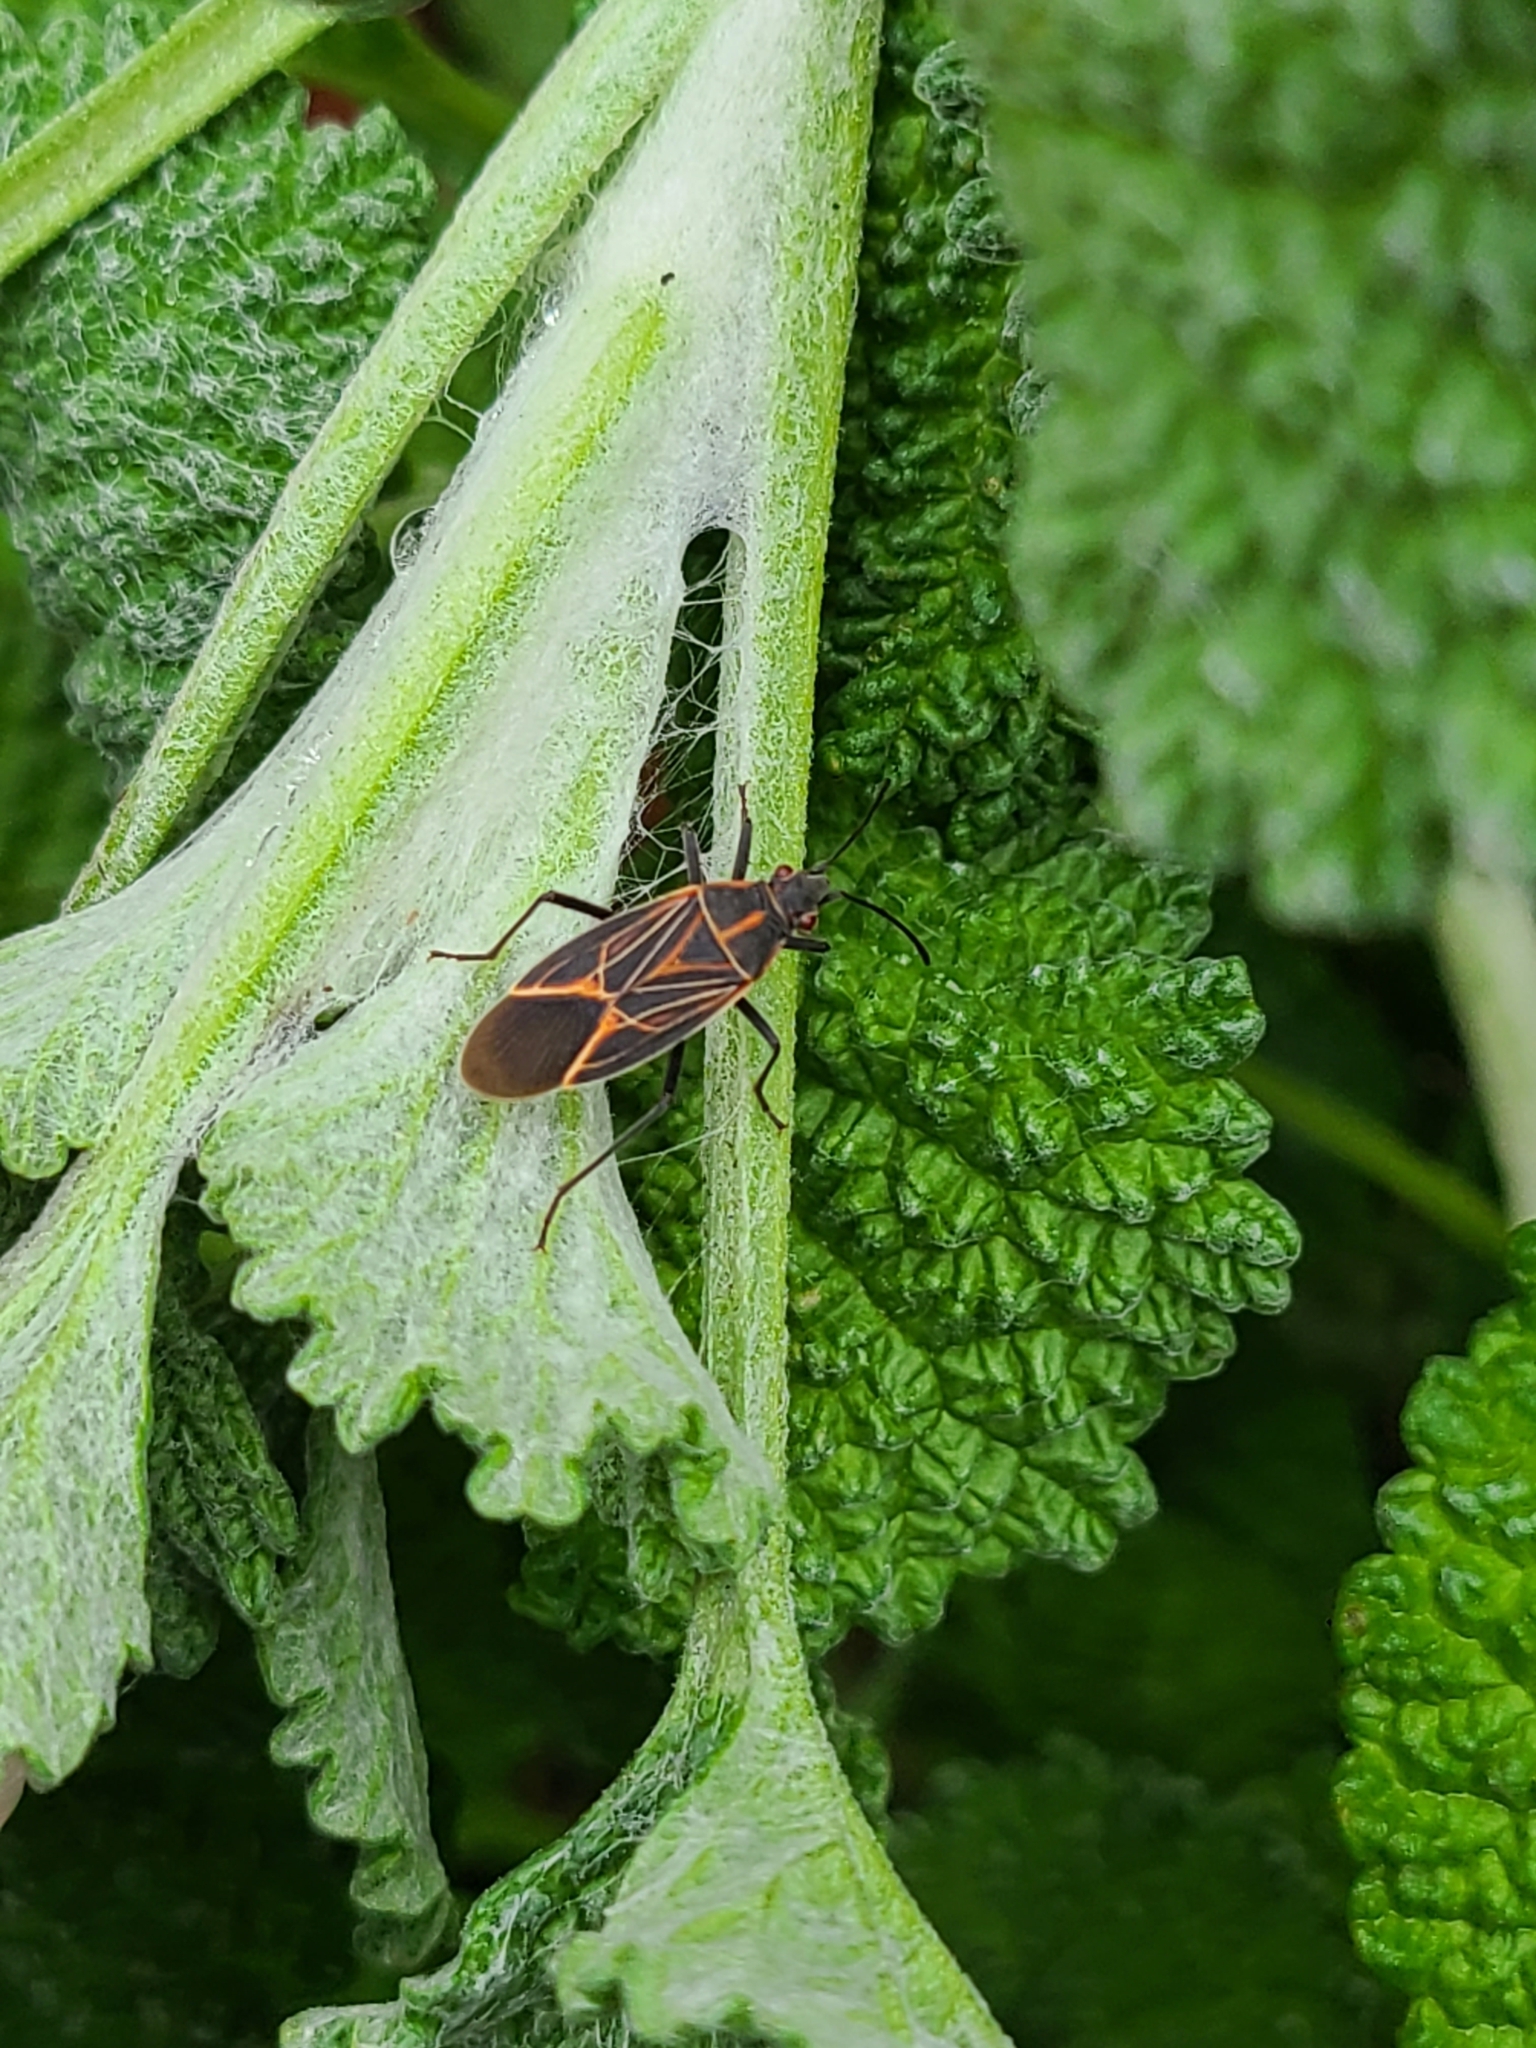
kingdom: Animalia
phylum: Arthropoda
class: Insecta
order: Hemiptera
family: Rhopalidae
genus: Boisea
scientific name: Boisea rubrolineata
